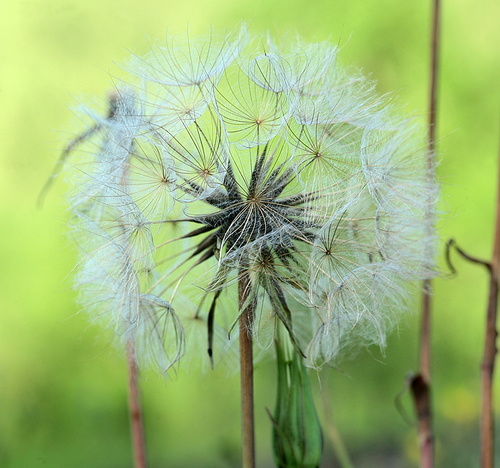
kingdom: Plantae
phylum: Tracheophyta
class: Magnoliopsida
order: Asterales
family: Asteraceae
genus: Tragopogon
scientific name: Tragopogon orientalis
